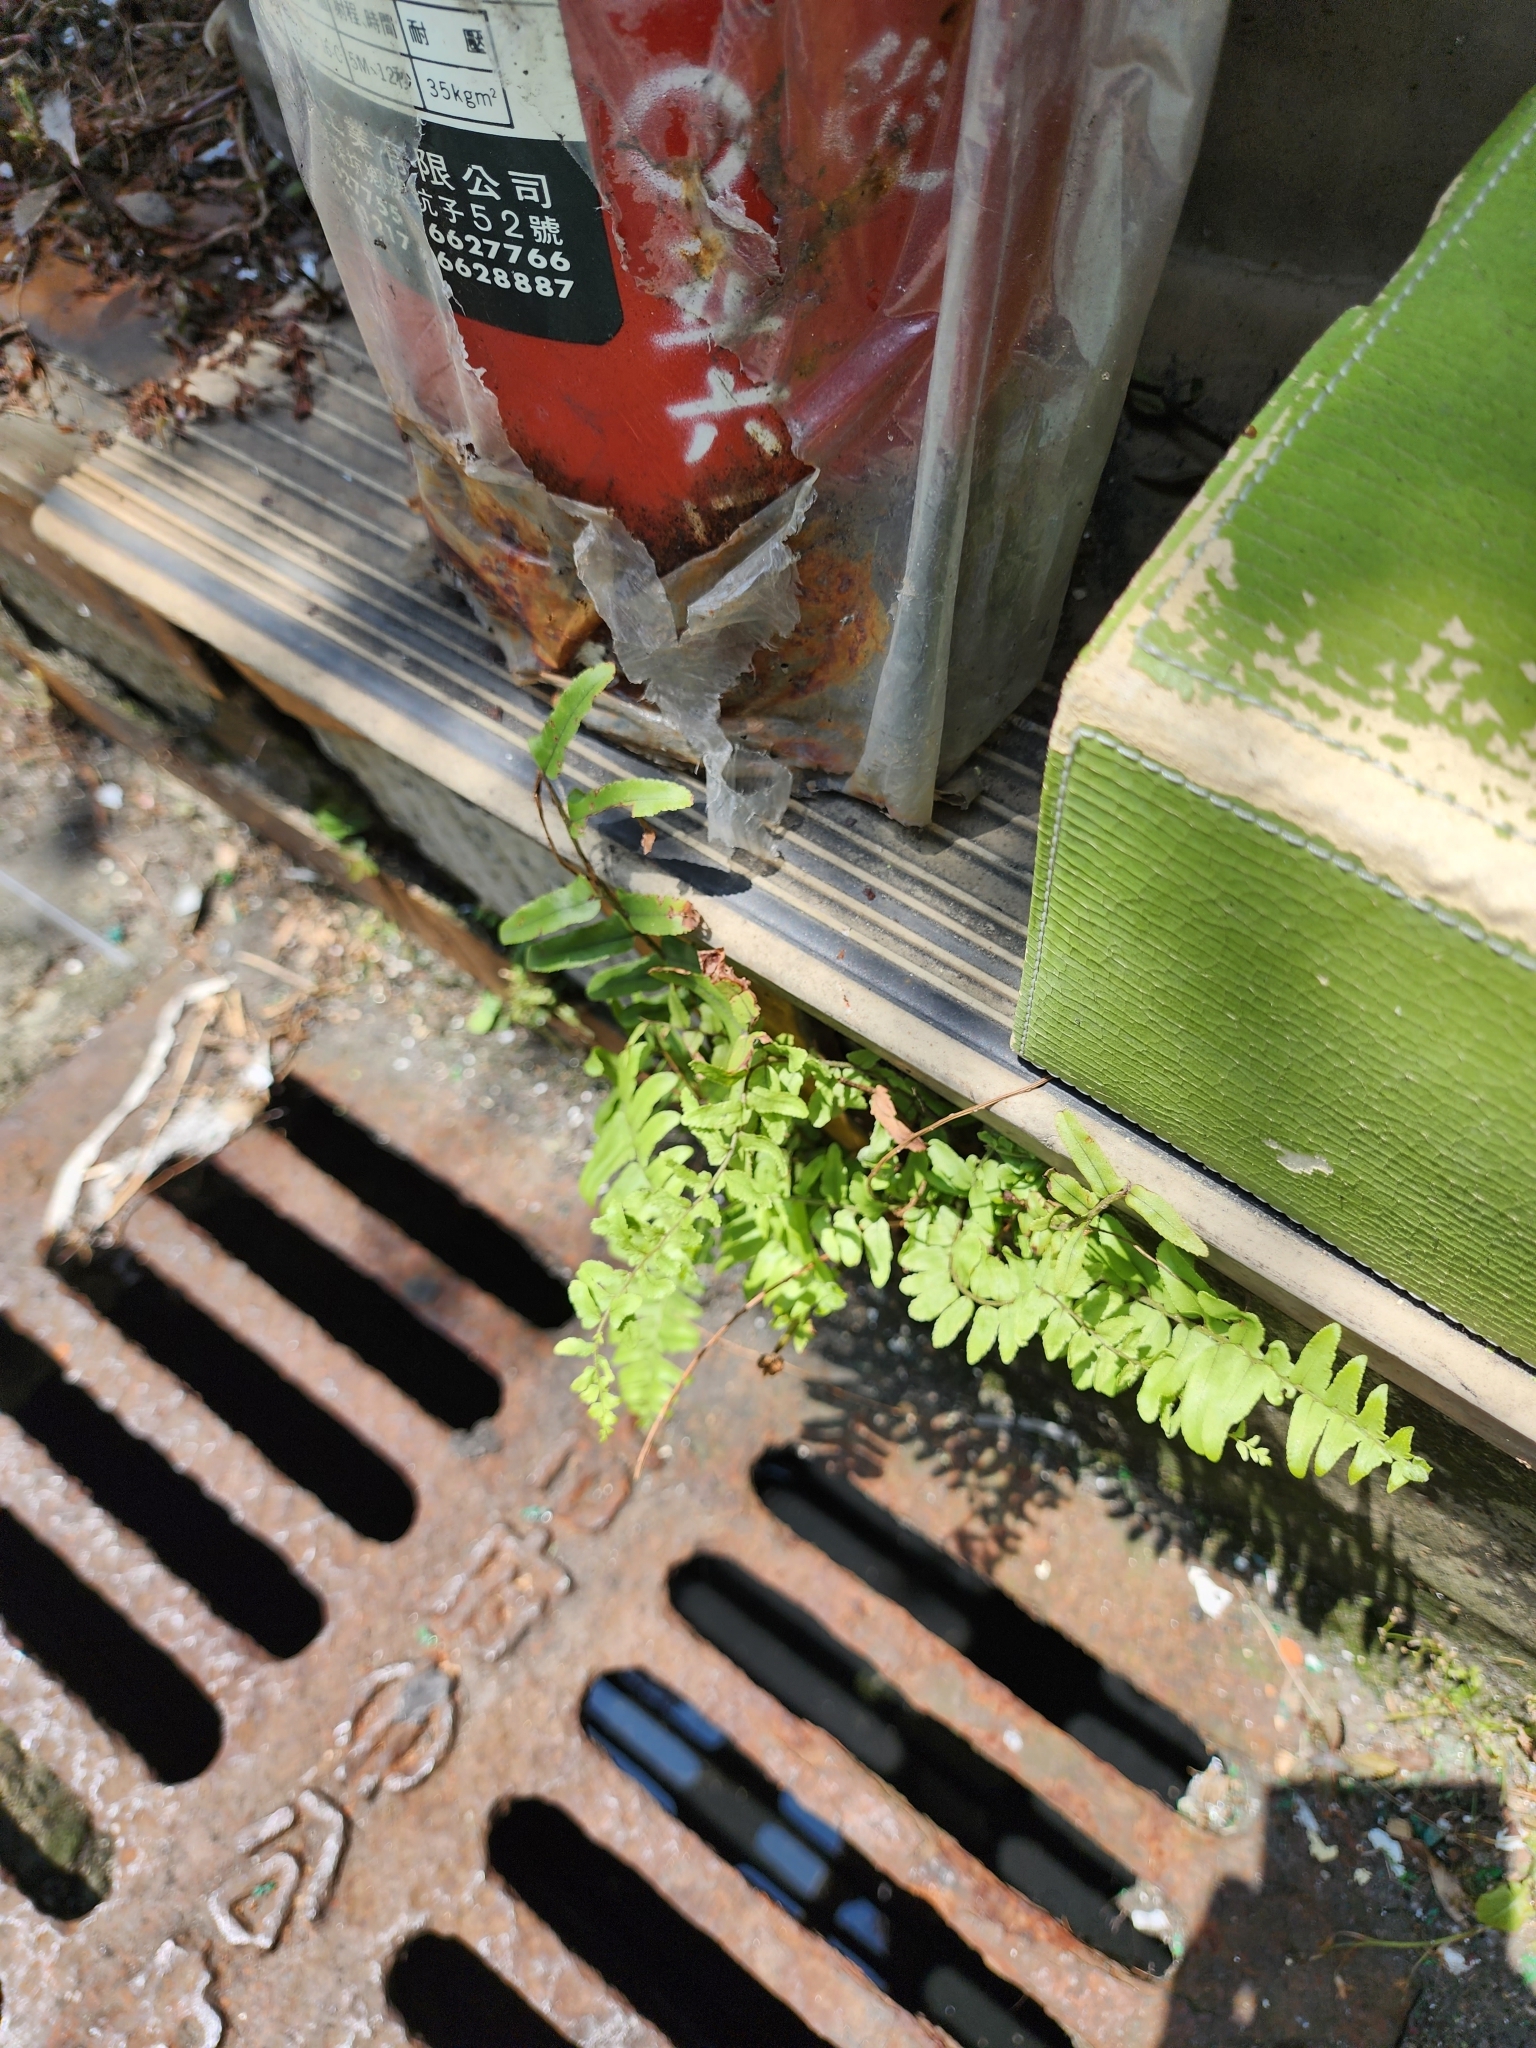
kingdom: Plantae
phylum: Tracheophyta
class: Polypodiopsida
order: Polypodiales
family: Nephrolepidaceae
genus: Nephrolepis
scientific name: Nephrolepis cordifolia
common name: Narrow swordfern
